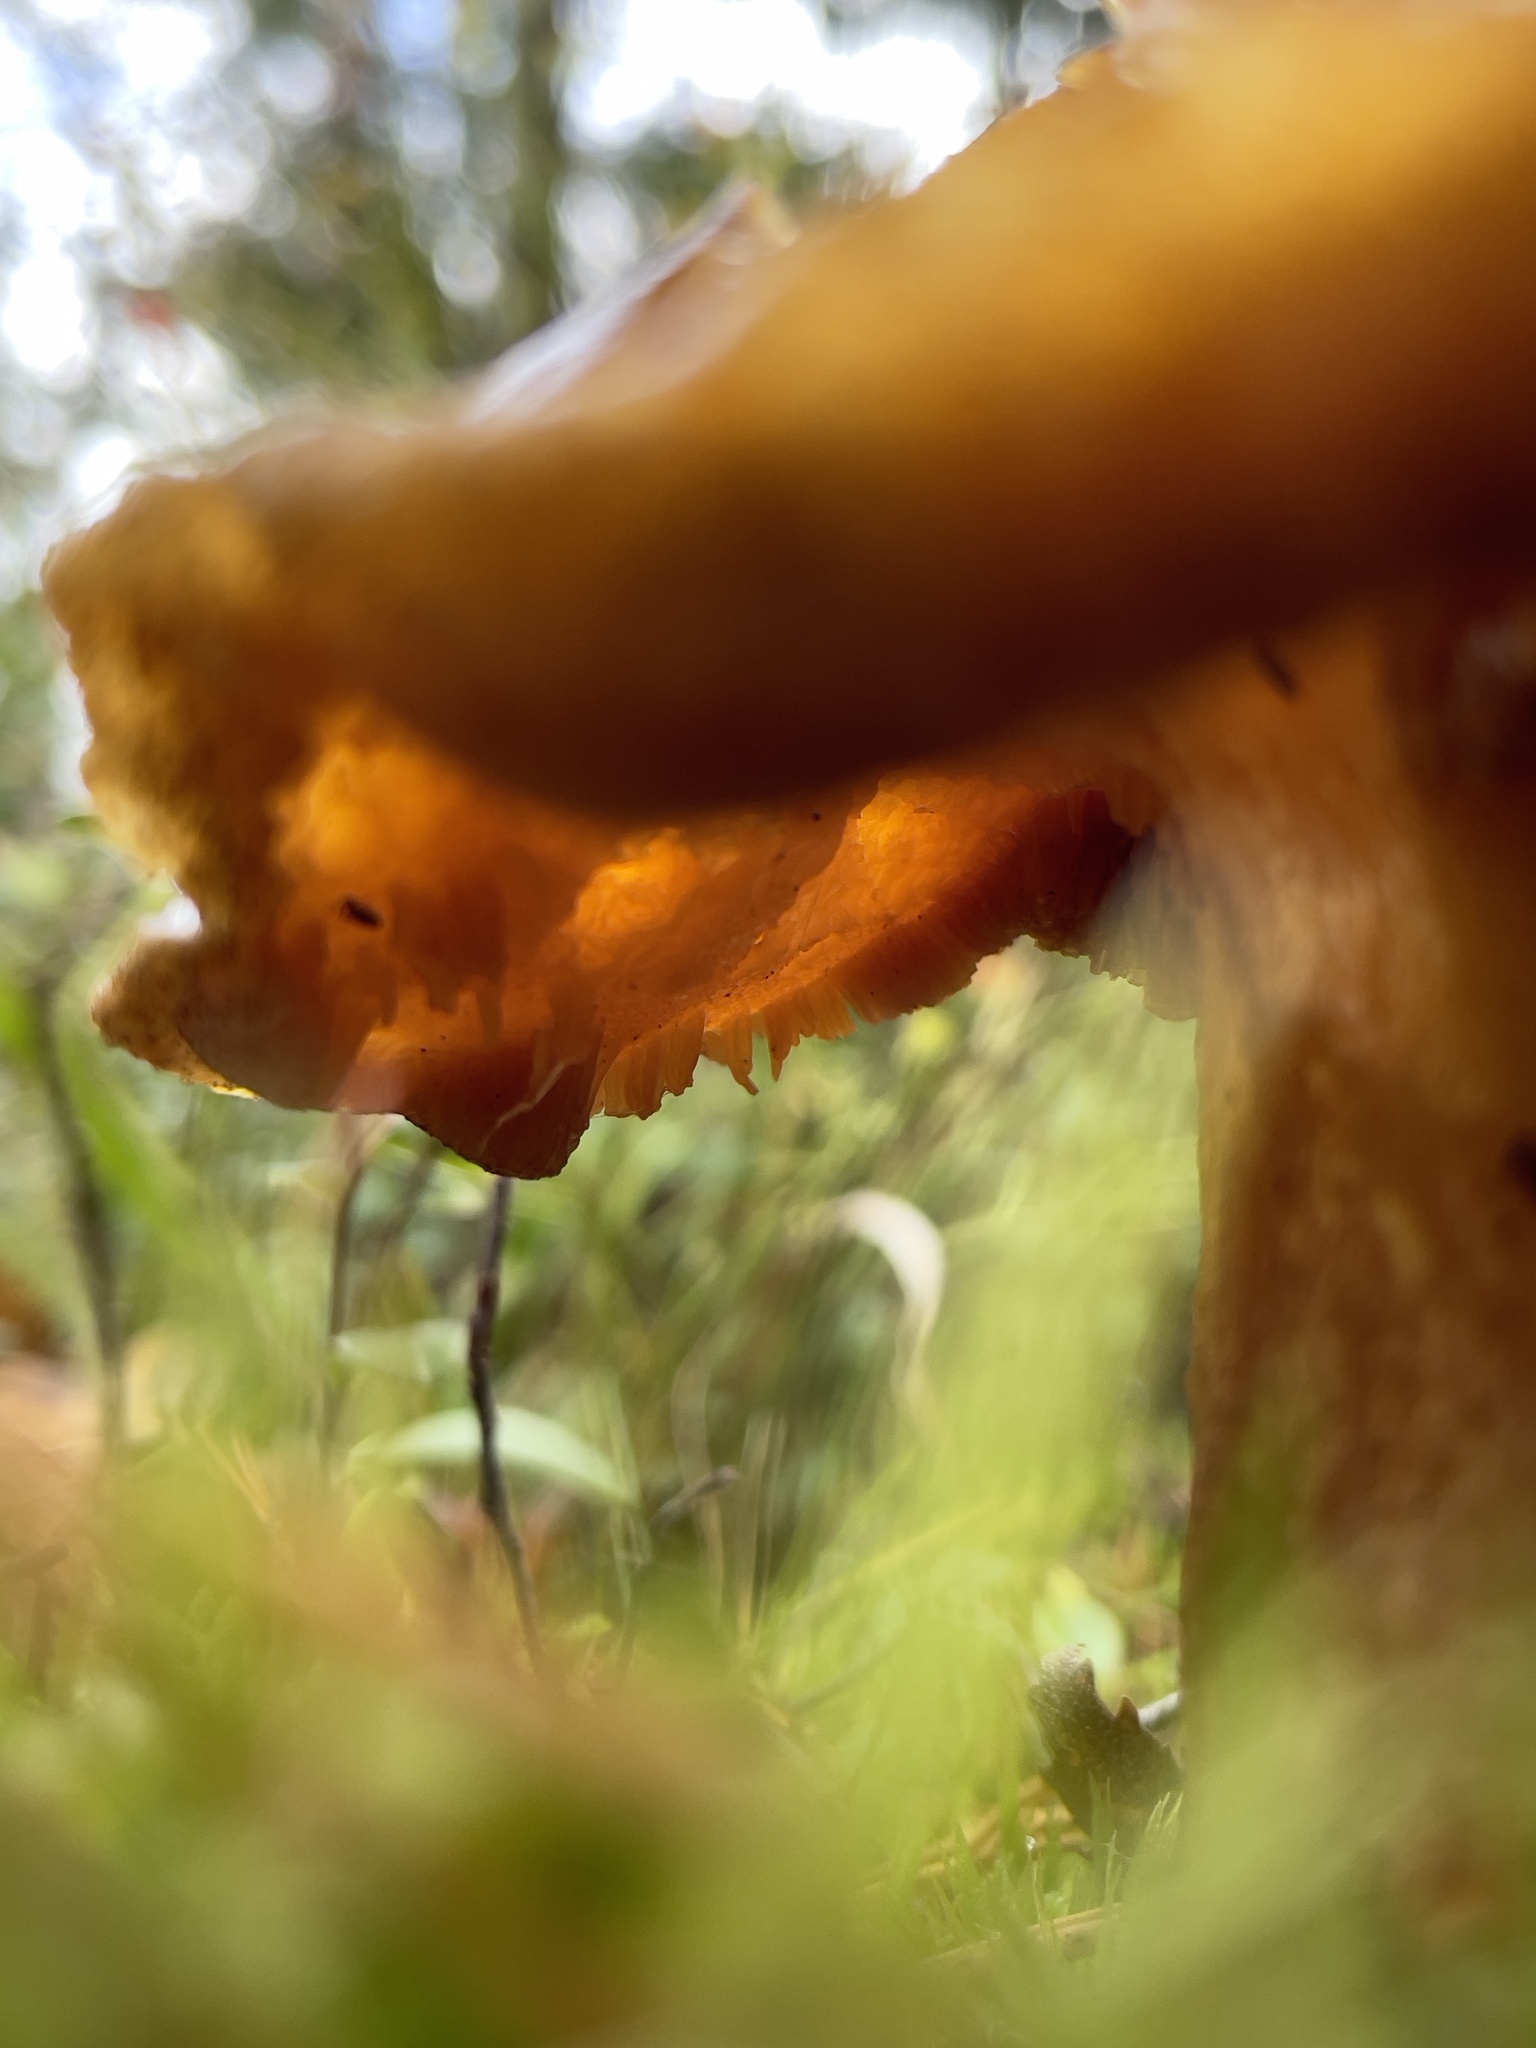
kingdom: Fungi
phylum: Basidiomycota
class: Agaricomycetes
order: Boletales
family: Suillaceae
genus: Suillus
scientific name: Suillus variegatus
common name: Velvet bolete
